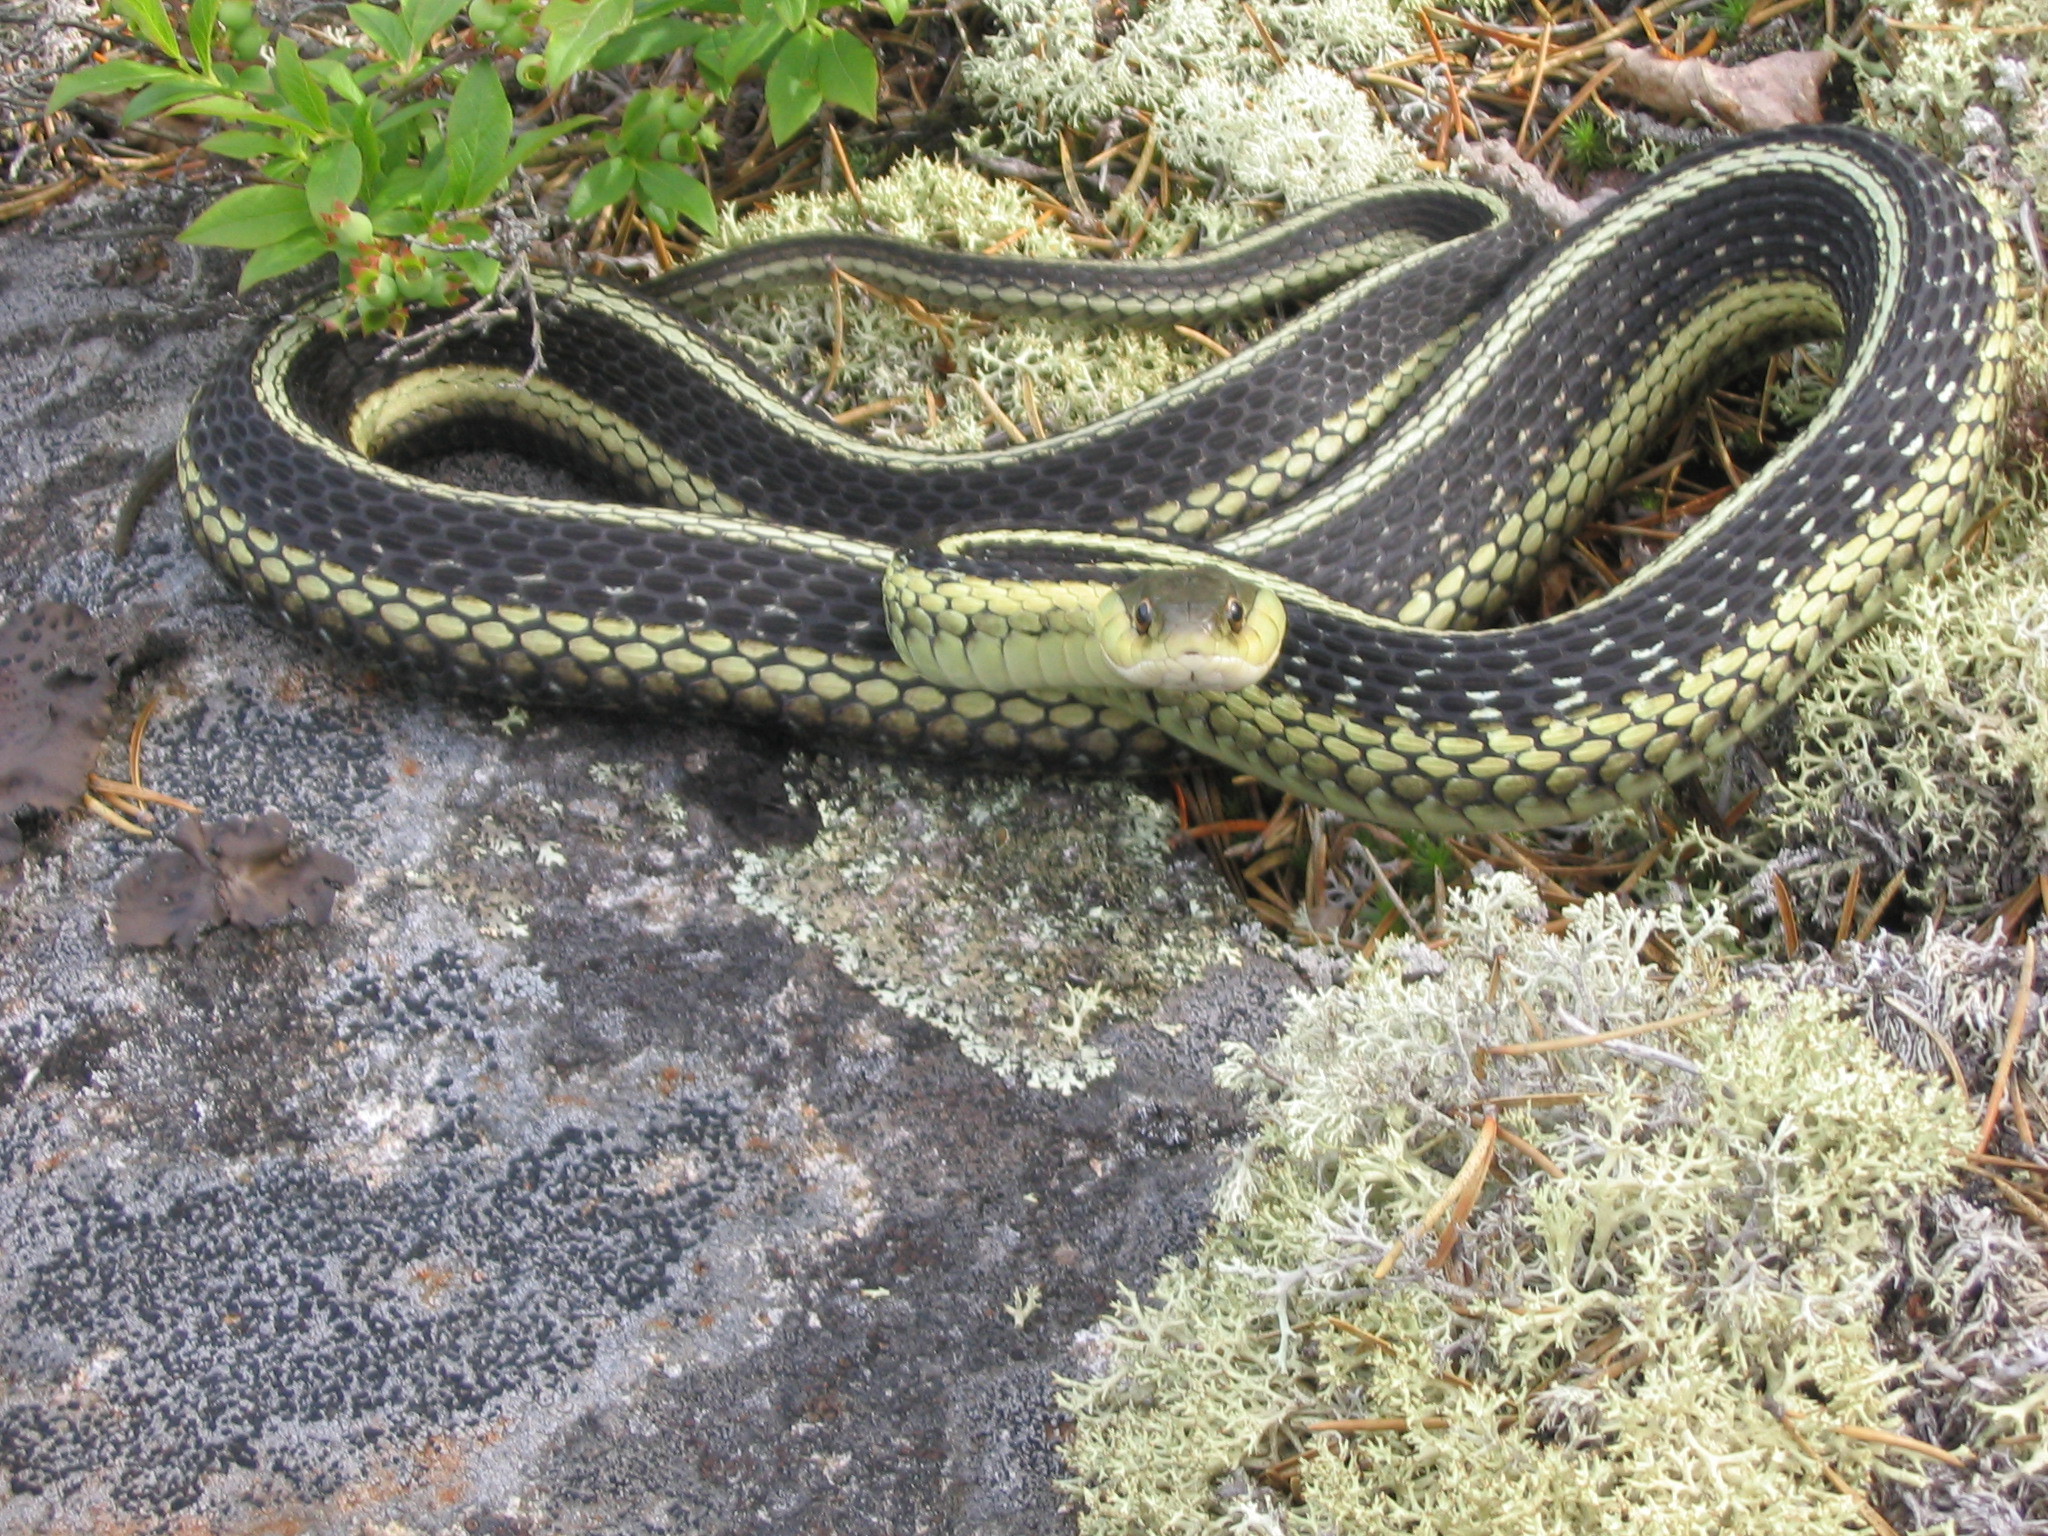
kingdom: Animalia
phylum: Chordata
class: Squamata
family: Colubridae
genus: Thamnophis
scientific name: Thamnophis sirtalis
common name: Common garter snake
